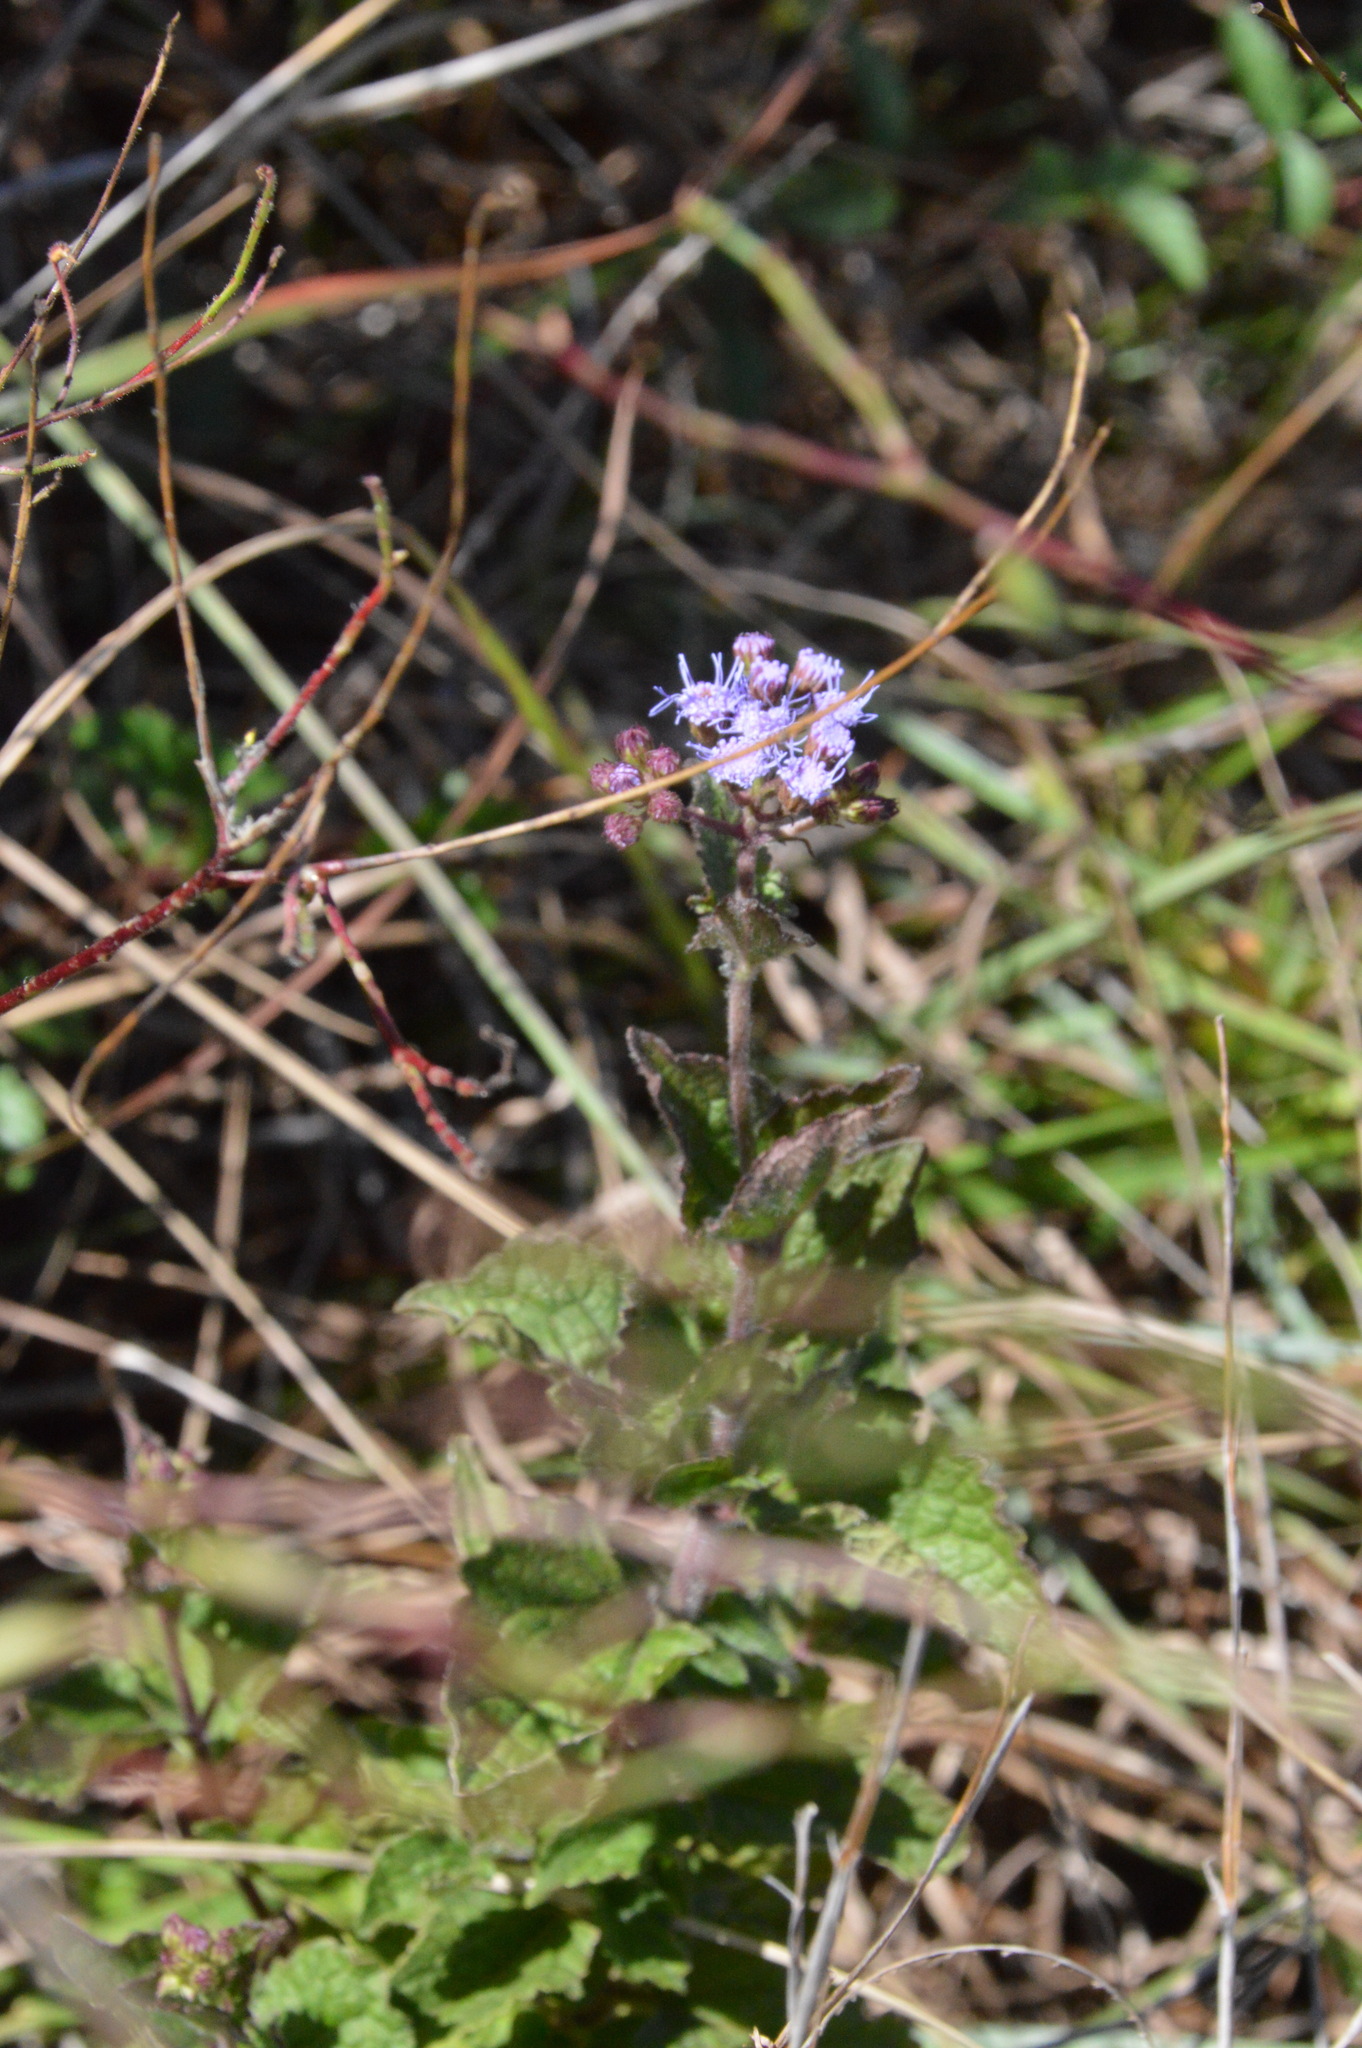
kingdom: Plantae
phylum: Tracheophyta
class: Magnoliopsida
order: Asterales
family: Asteraceae
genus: Conoclinium
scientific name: Conoclinium coelestinum
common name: Blue mistflower
